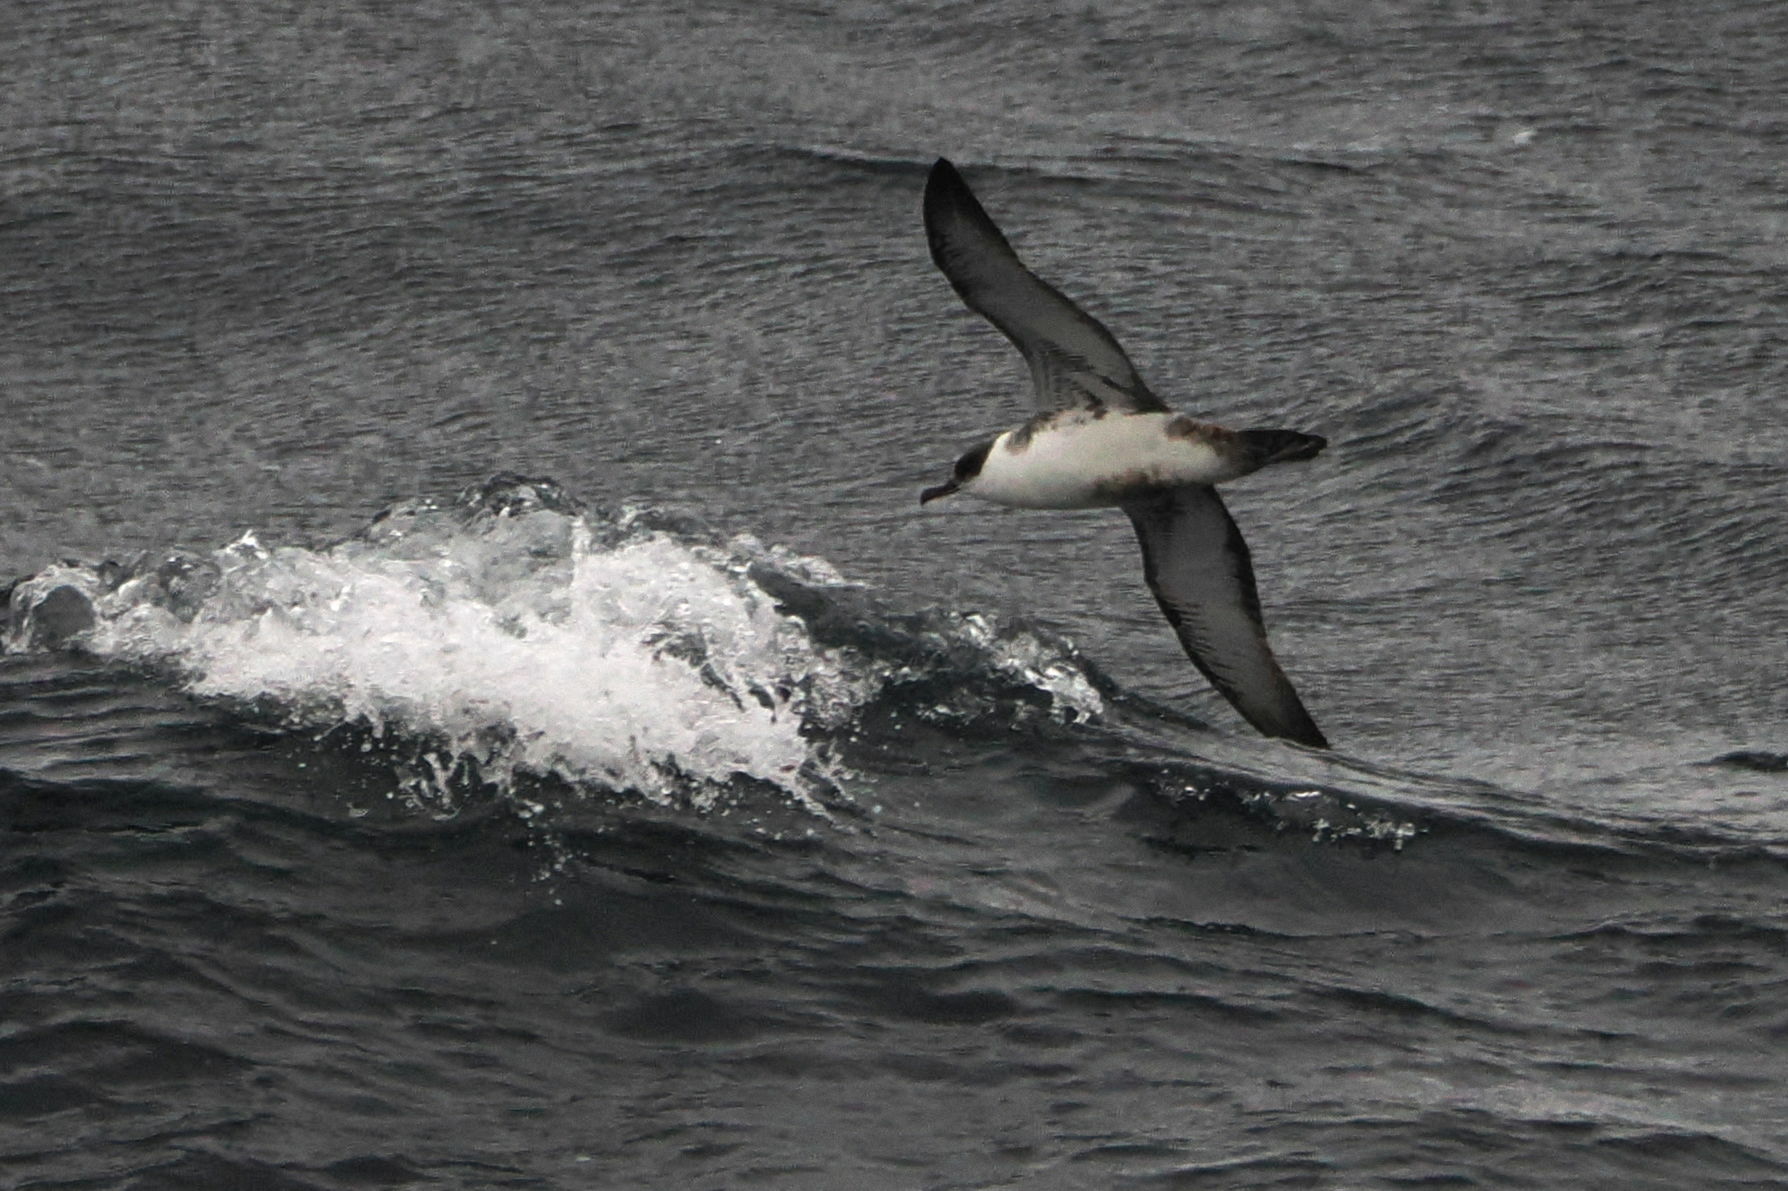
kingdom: Animalia
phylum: Chordata
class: Aves
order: Procellariiformes
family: Procellariidae
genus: Puffinus
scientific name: Puffinus gravis
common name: Great shearwater
